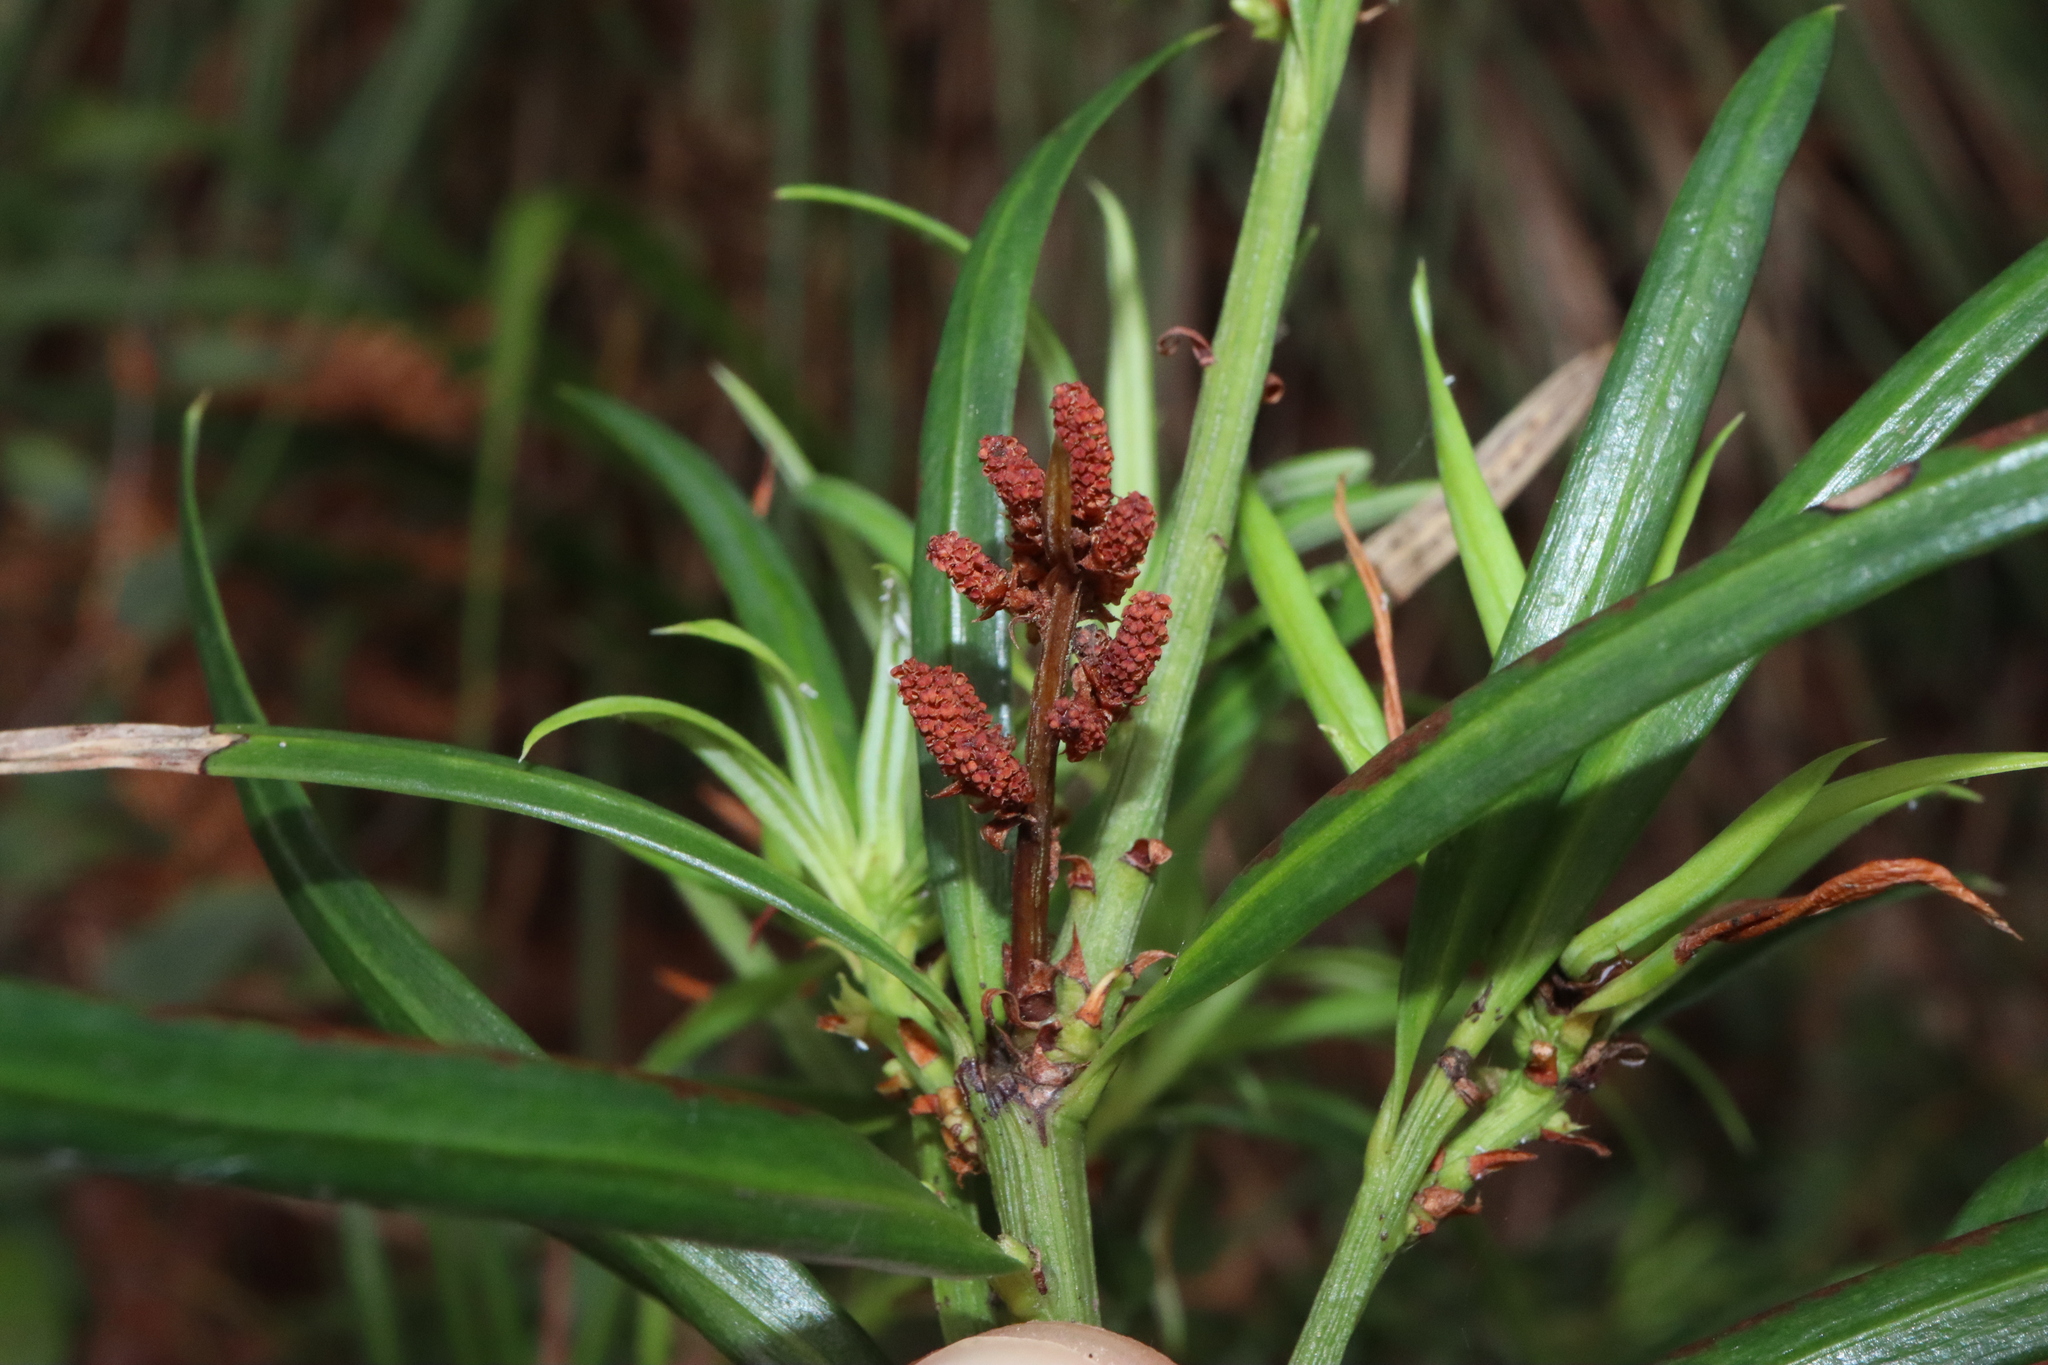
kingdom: Plantae
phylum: Tracheophyta
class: Pinopsida
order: Pinales
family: Podocarpaceae
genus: Podocarpus
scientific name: Podocarpus spinulosus
